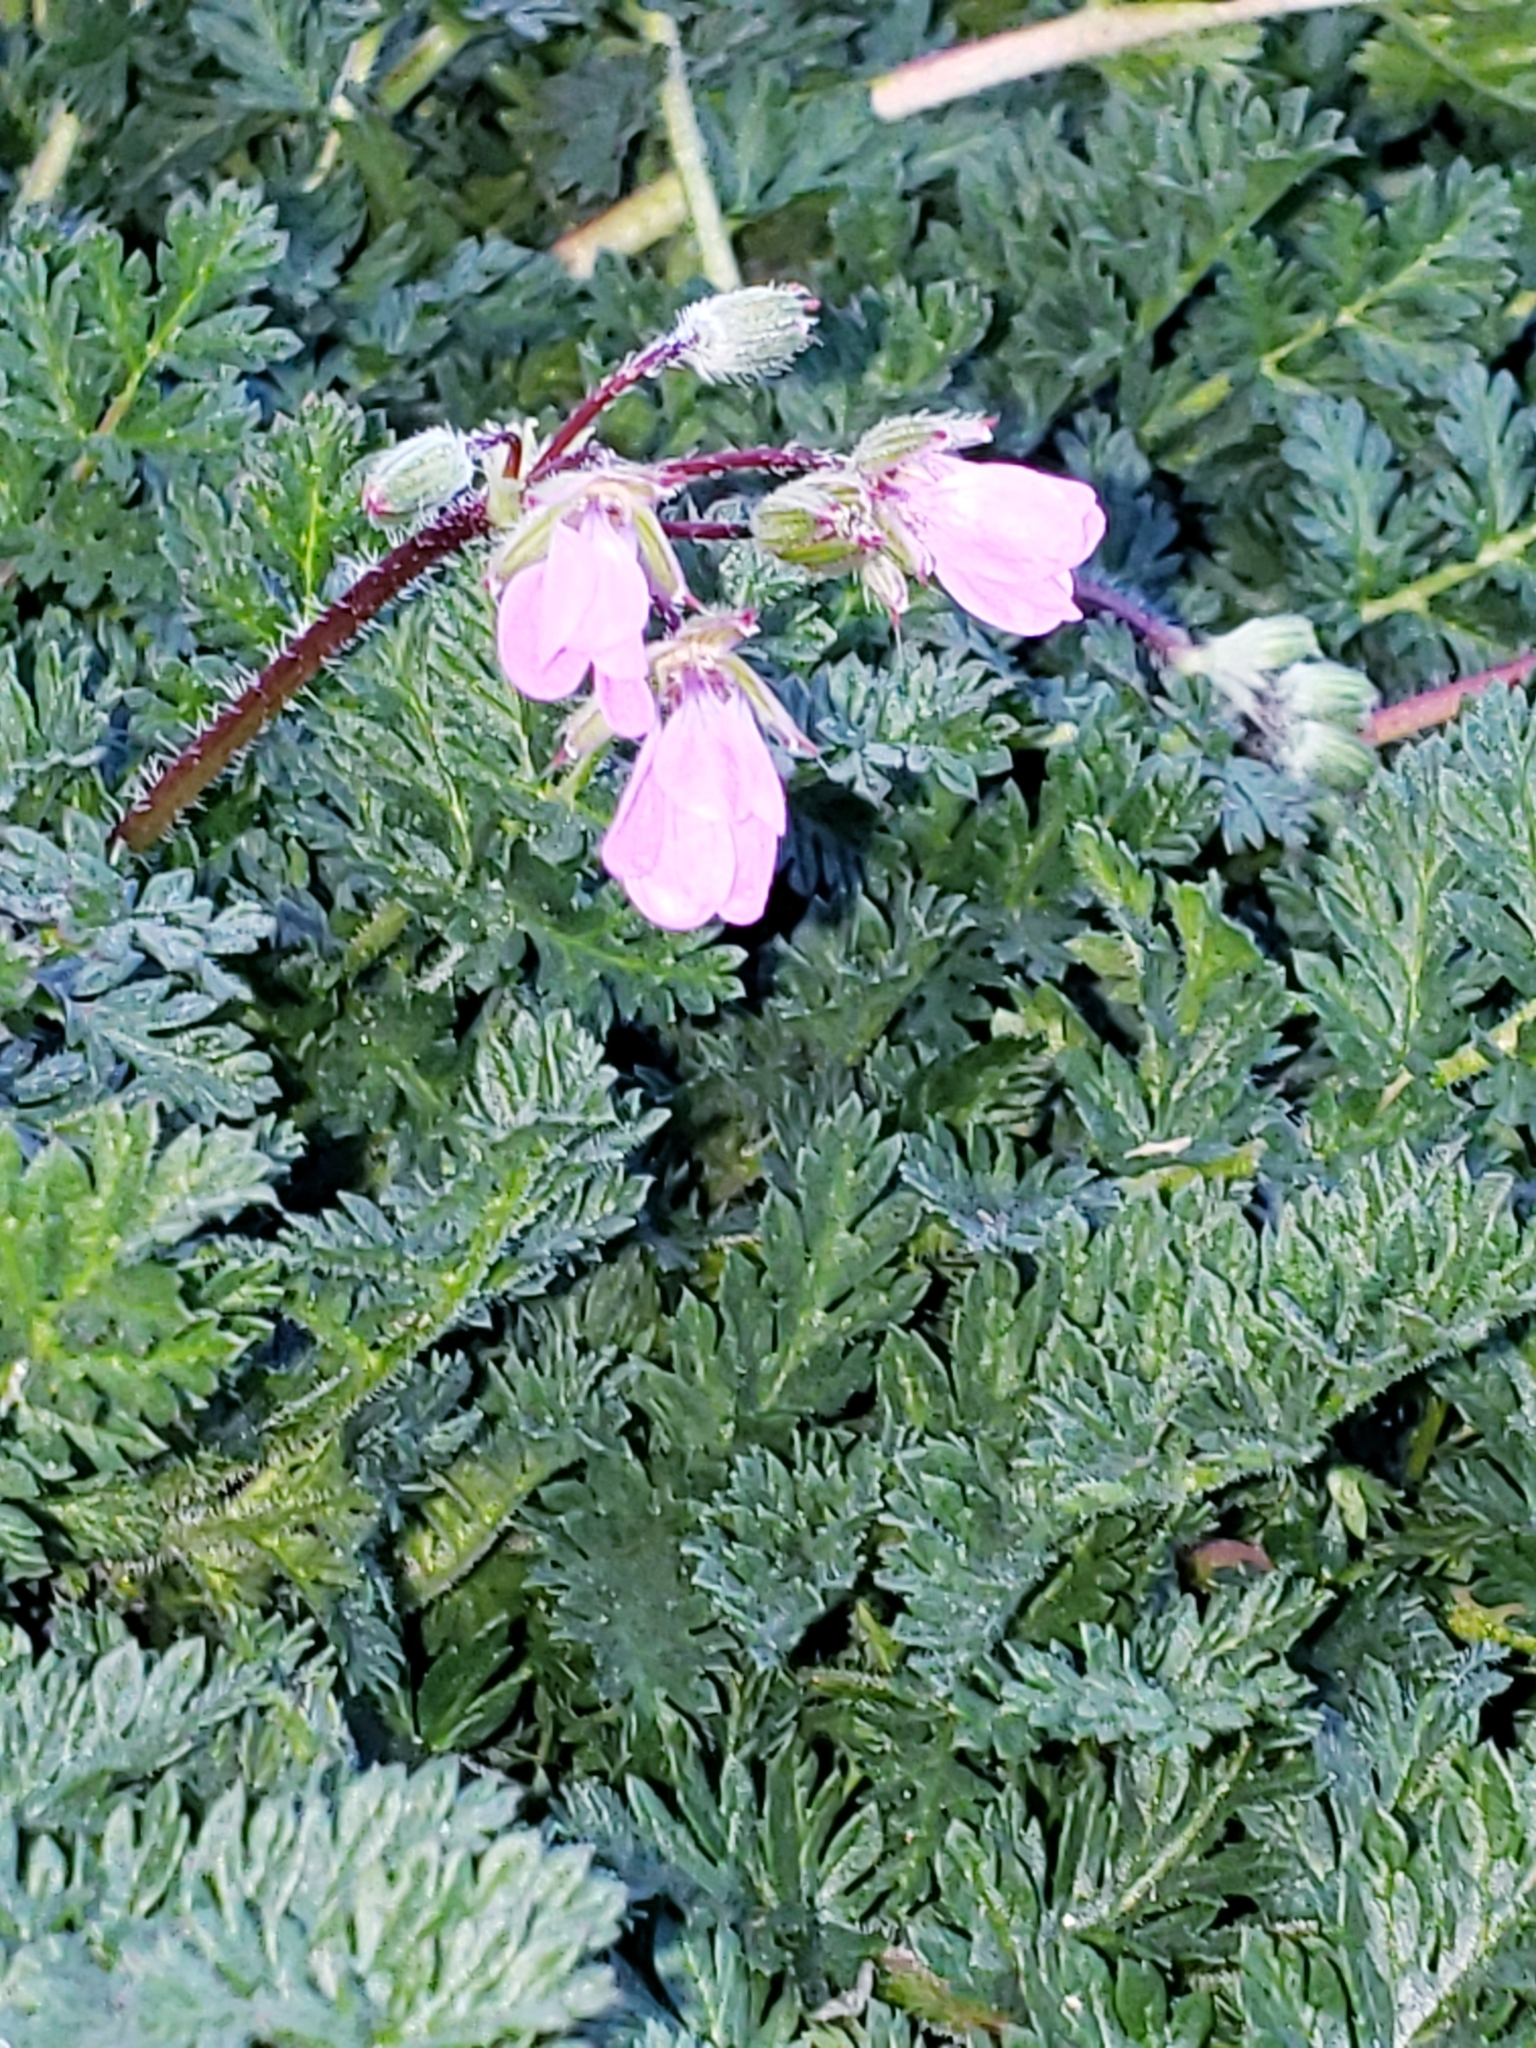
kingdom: Plantae
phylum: Tracheophyta
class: Magnoliopsida
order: Geraniales
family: Geraniaceae
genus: Erodium
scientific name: Erodium cicutarium
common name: Common stork's-bill
